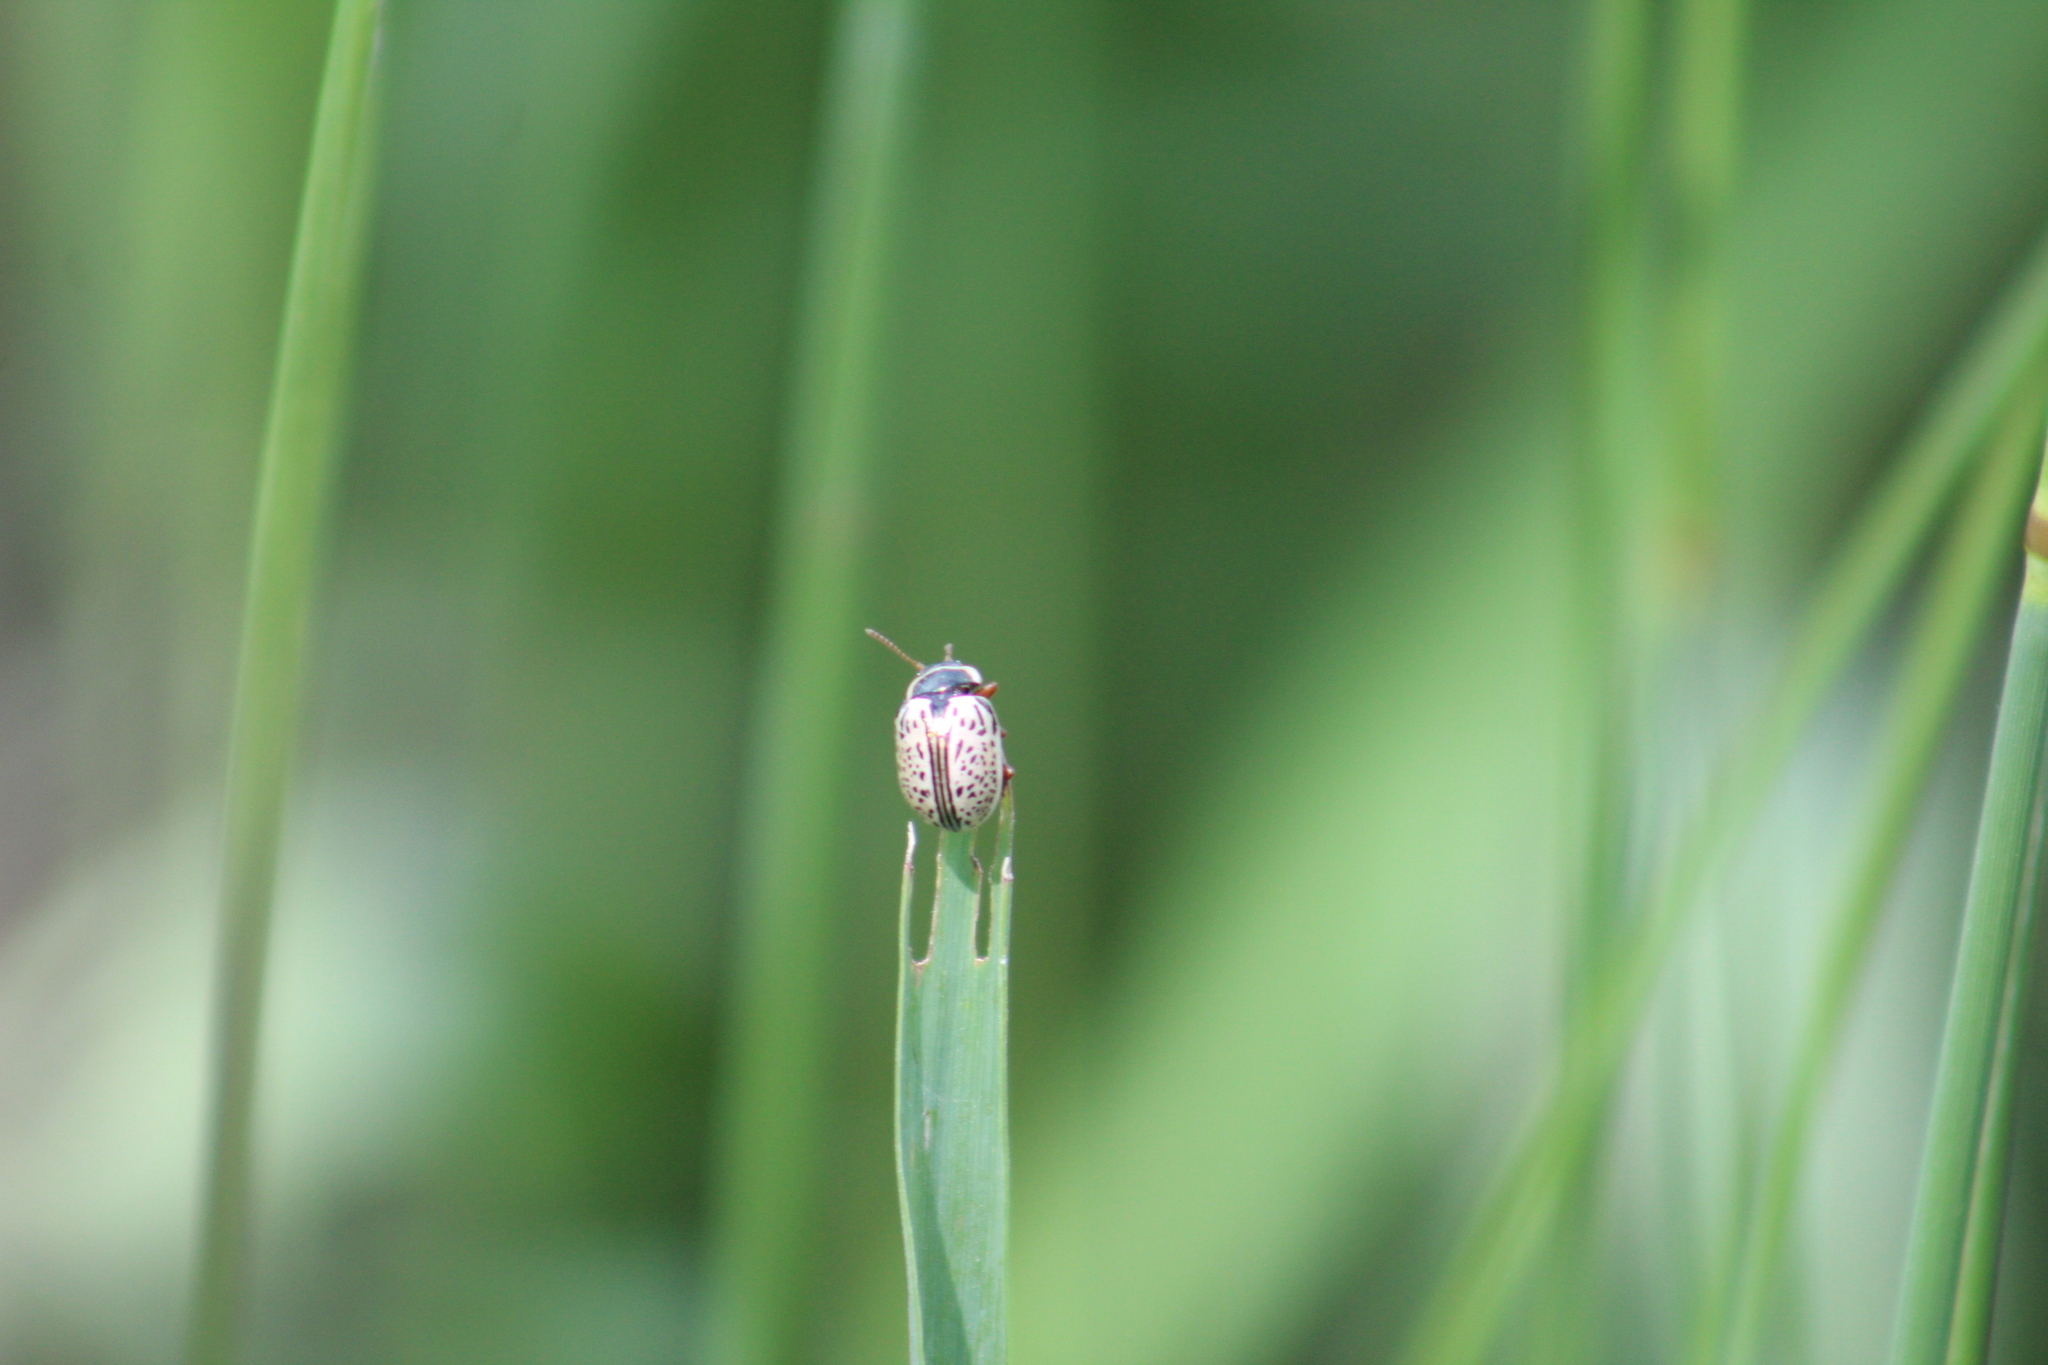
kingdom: Animalia
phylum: Arthropoda
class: Insecta
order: Coleoptera
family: Chrysomelidae
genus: Calligrapha
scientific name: Calligrapha multipunctata
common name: Common willow calligrapher beetle
